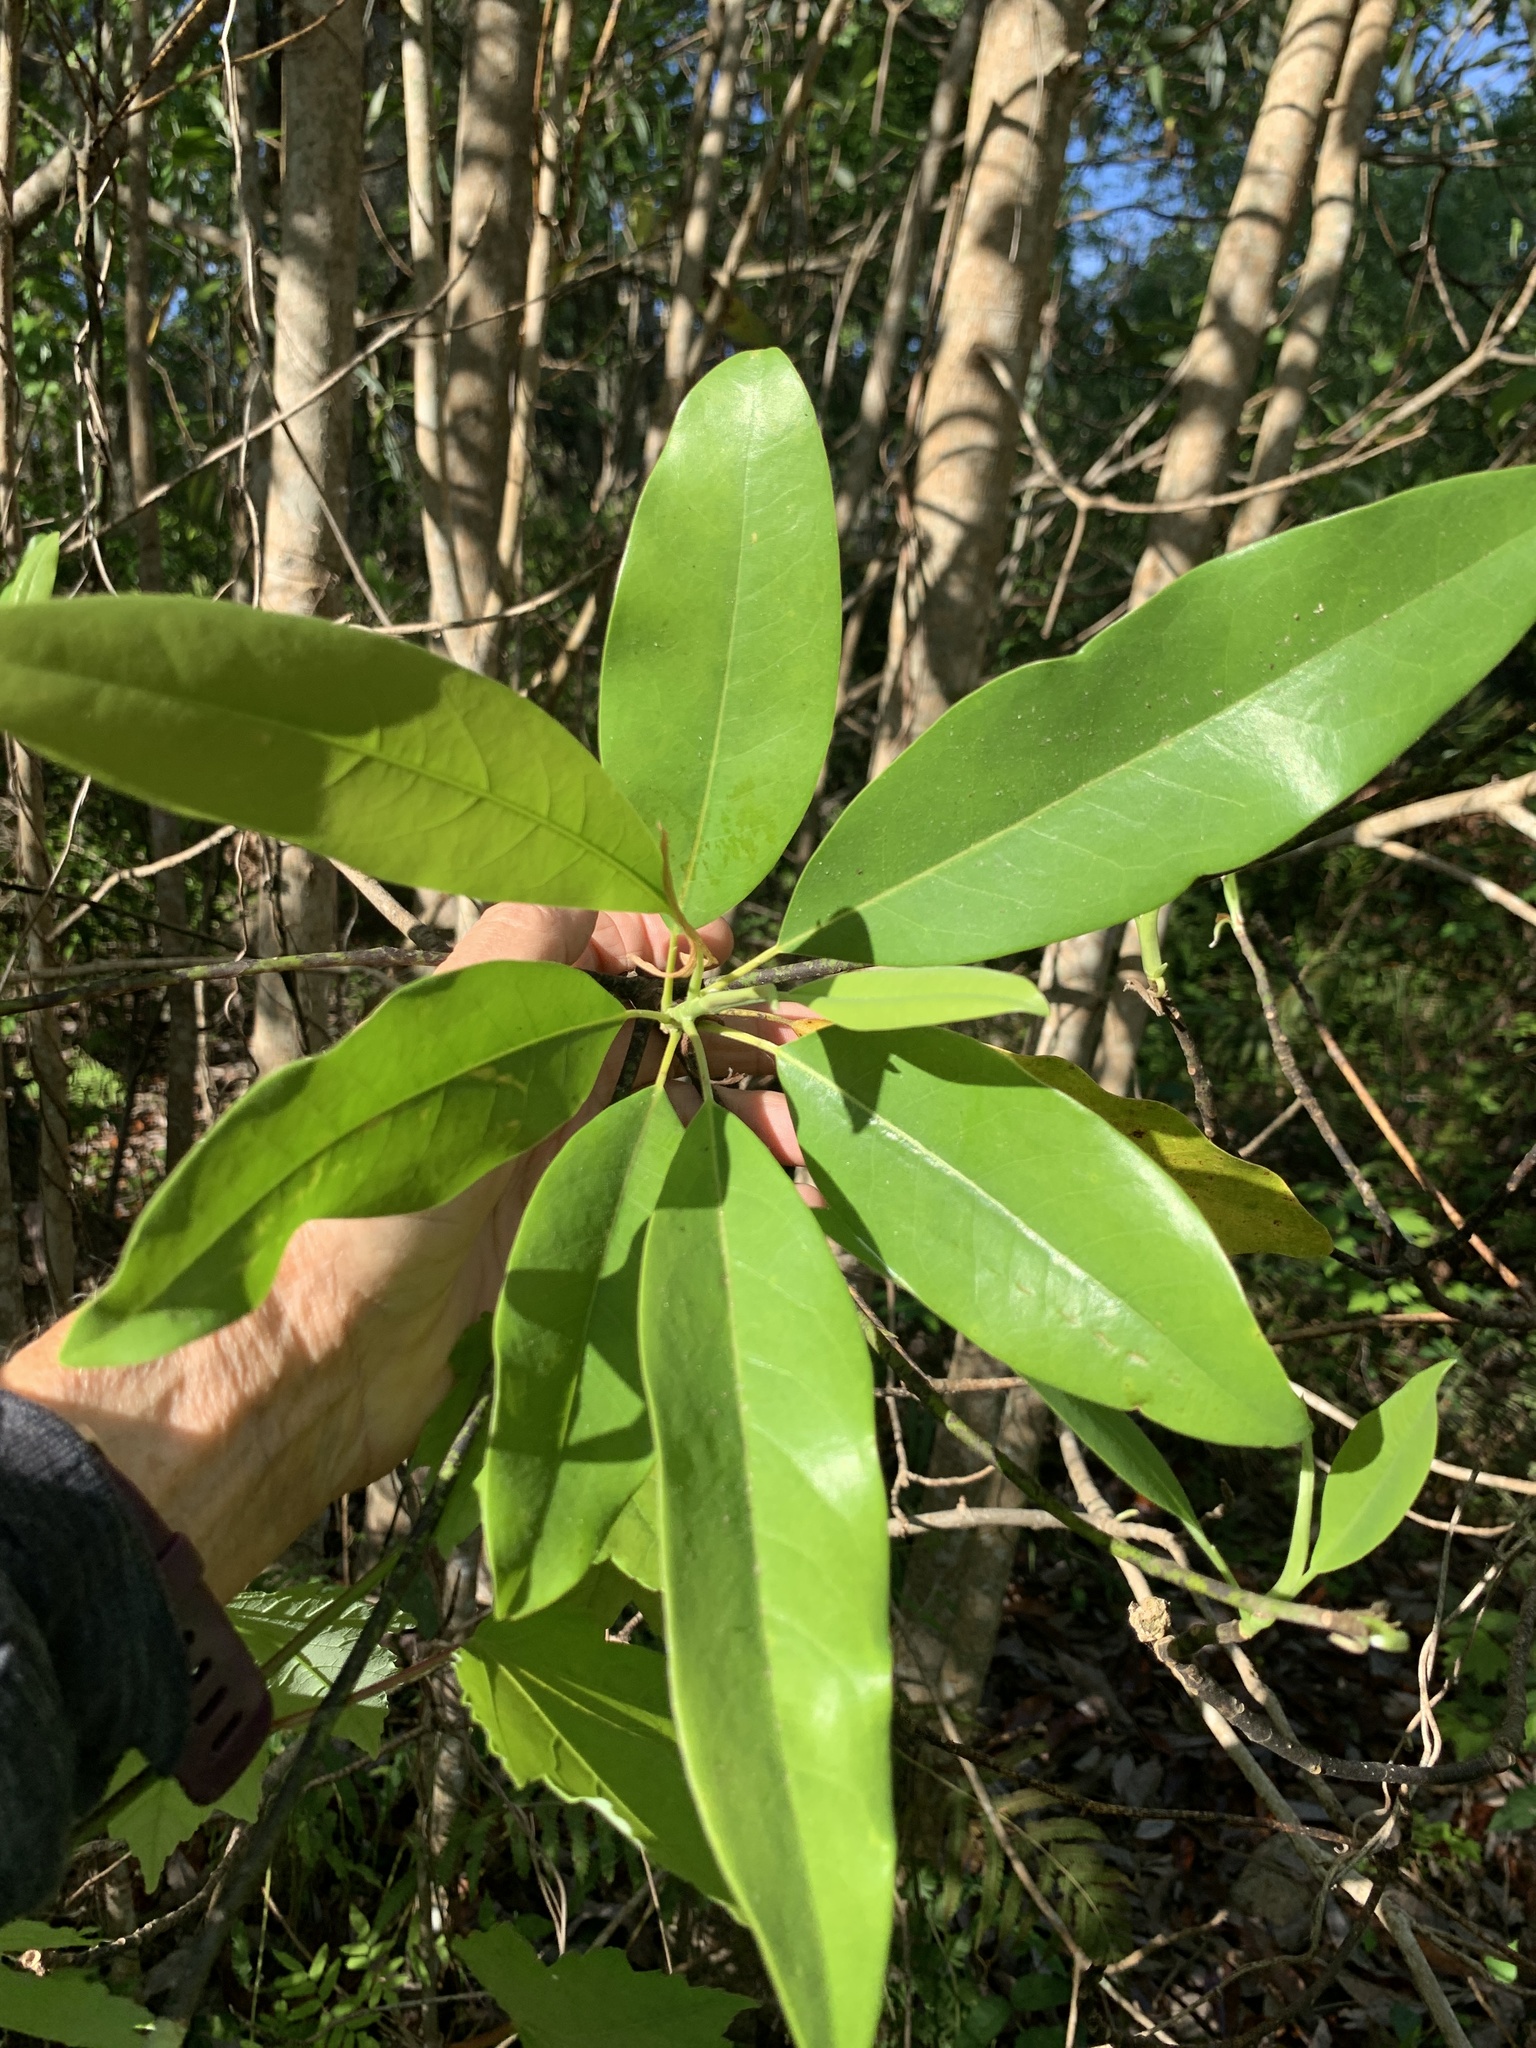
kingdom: Plantae
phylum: Tracheophyta
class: Magnoliopsida
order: Magnoliales
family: Magnoliaceae
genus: Magnolia
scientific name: Magnolia virginiana
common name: Swamp bay
